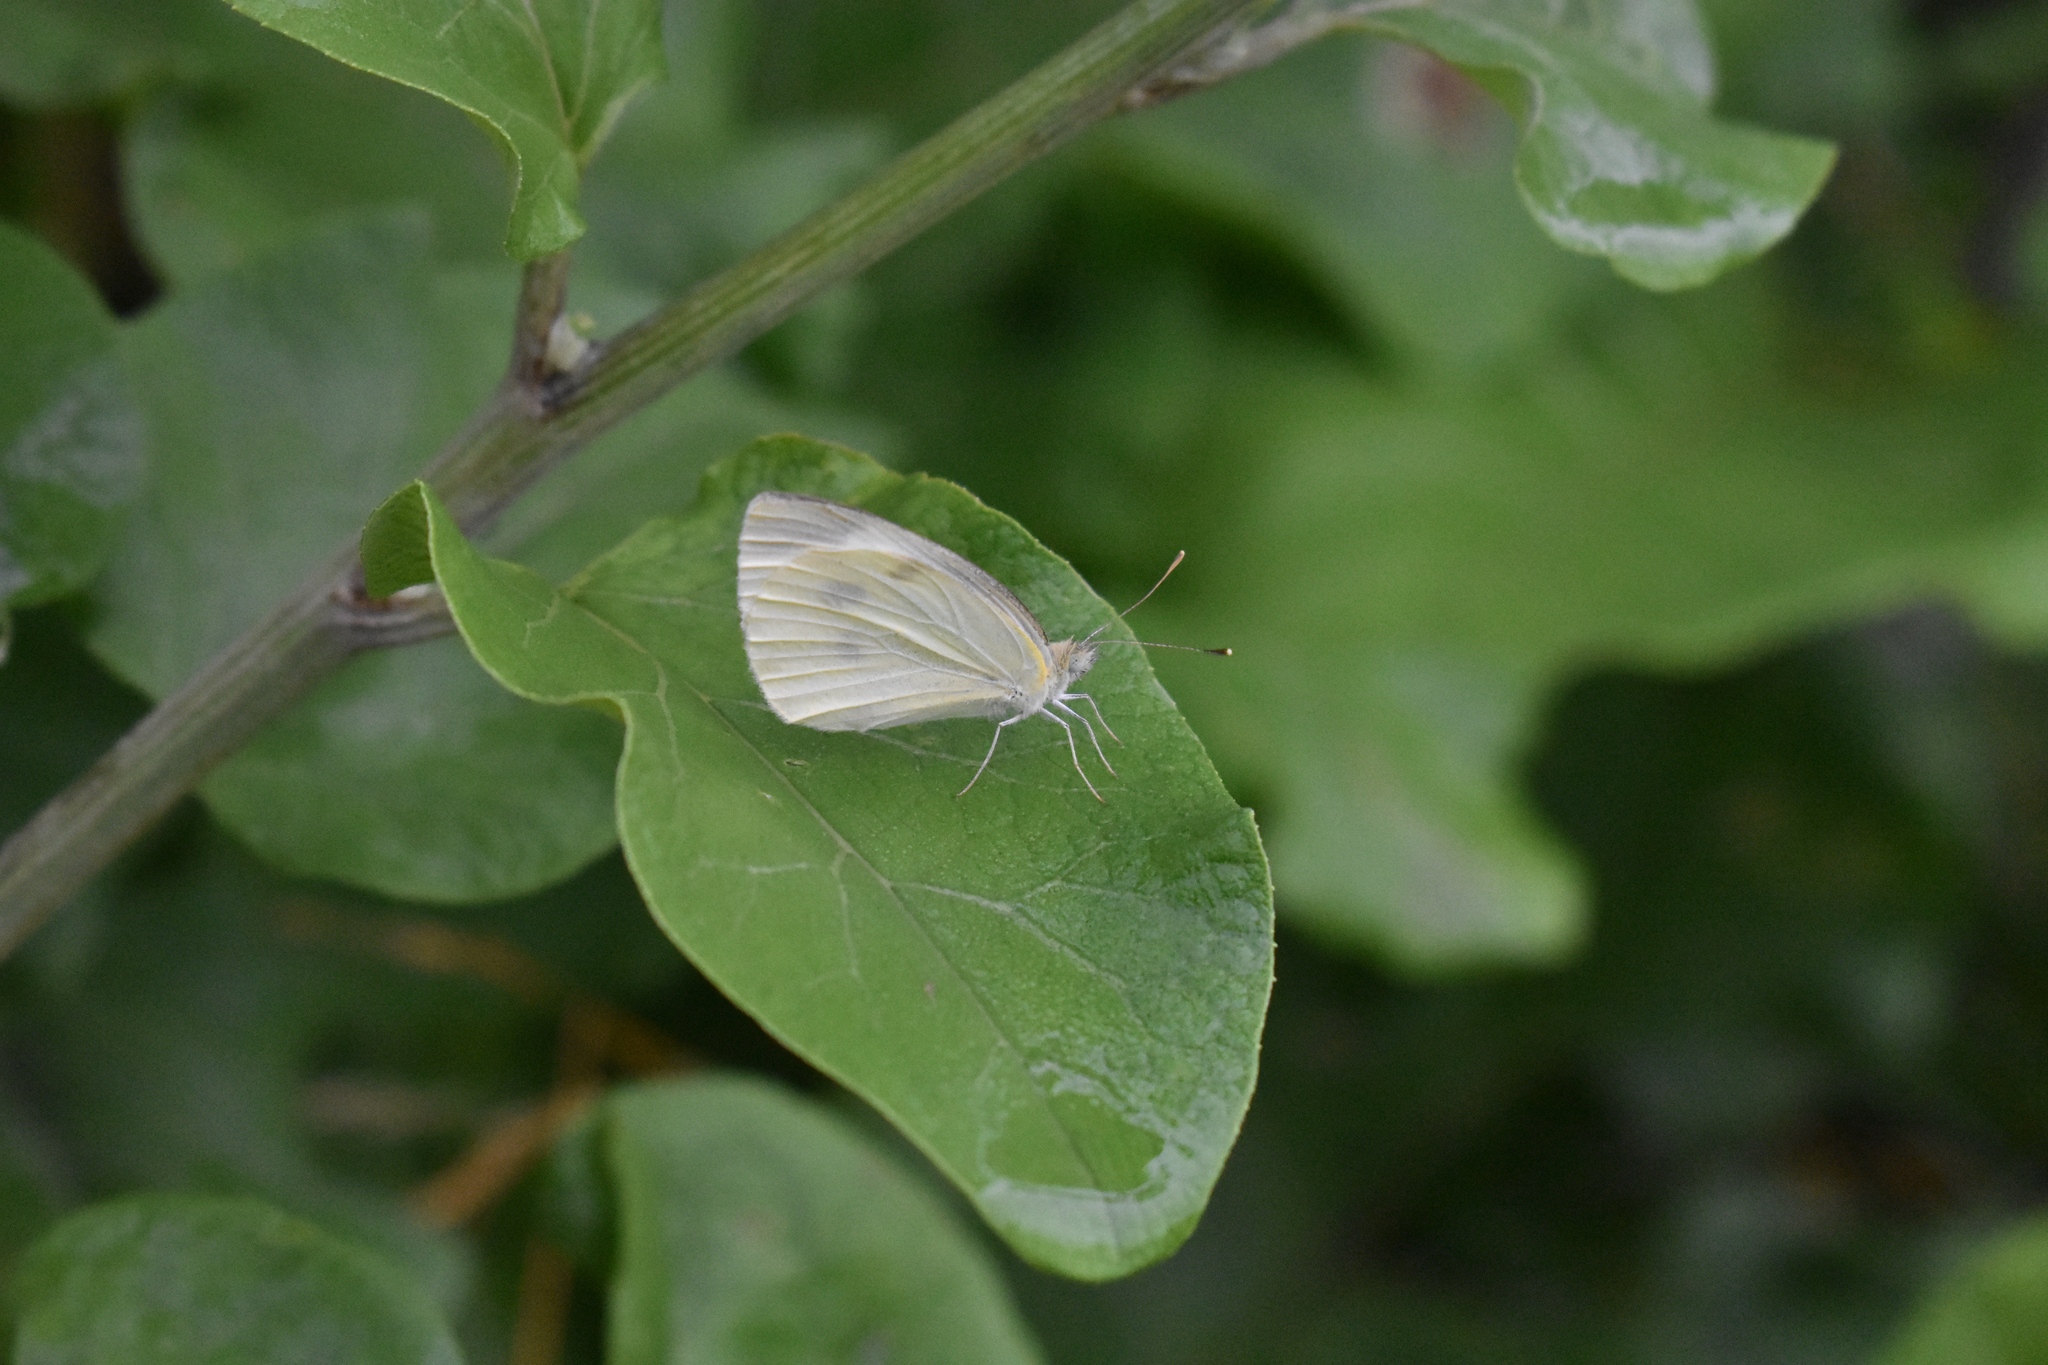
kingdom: Animalia
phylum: Arthropoda
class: Insecta
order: Lepidoptera
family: Pieridae
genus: Pieris
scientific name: Pieris rapae
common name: Small white
